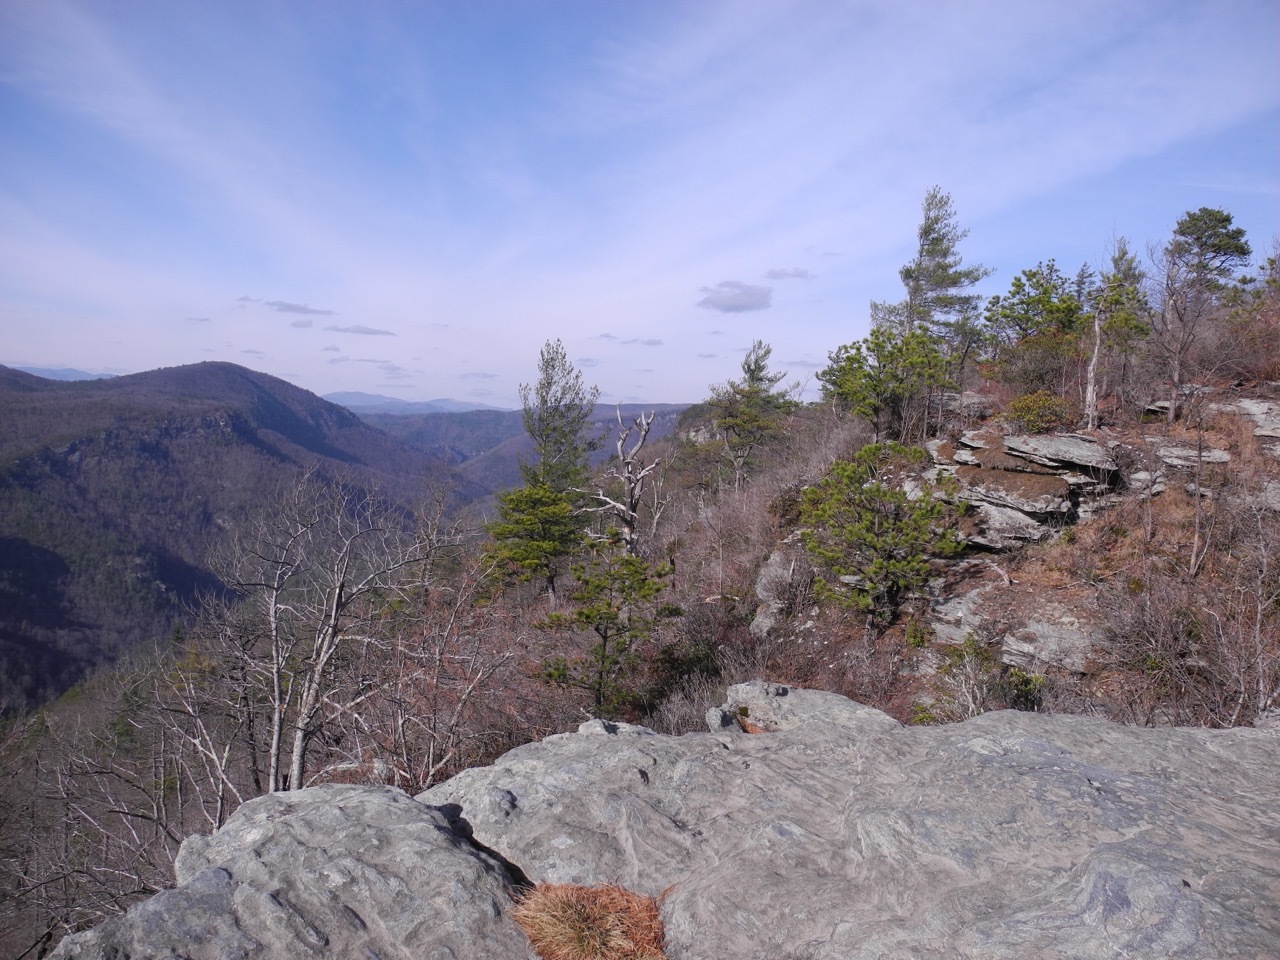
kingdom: Plantae
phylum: Tracheophyta
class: Pinopsida
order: Pinales
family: Pinaceae
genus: Pinus
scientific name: Pinus pungens
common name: Hickory pine
